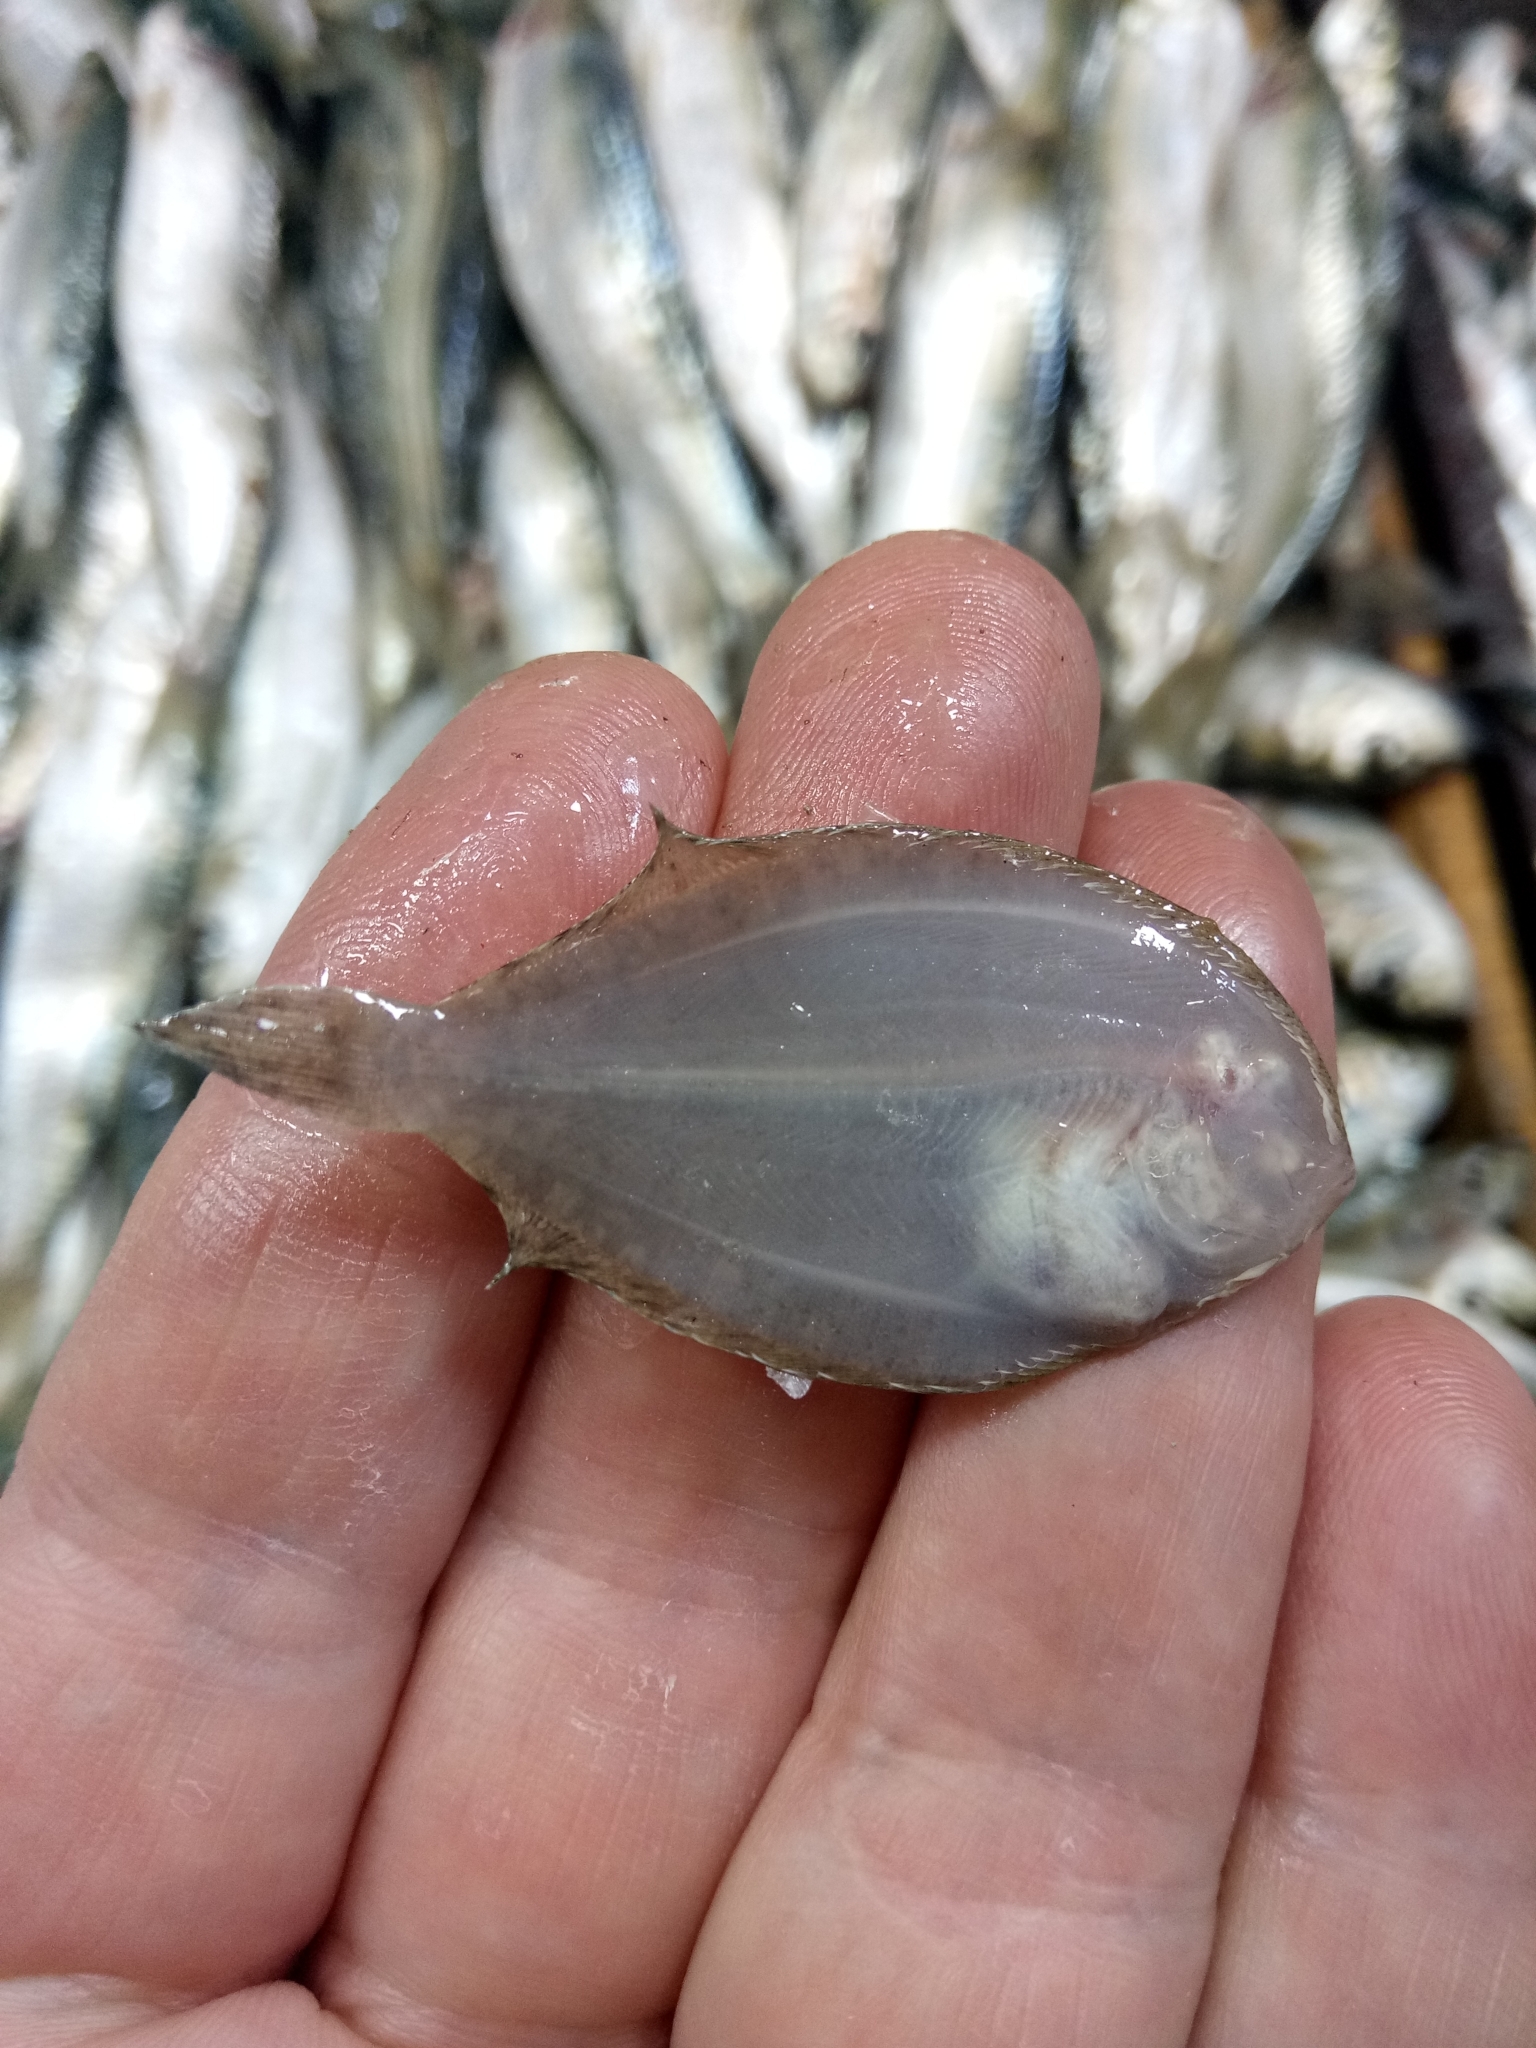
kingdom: Animalia
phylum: Chordata
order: Pleuronectiformes
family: Bothidae
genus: Bothus
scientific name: Bothus podas
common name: Wide-eyed flounder
